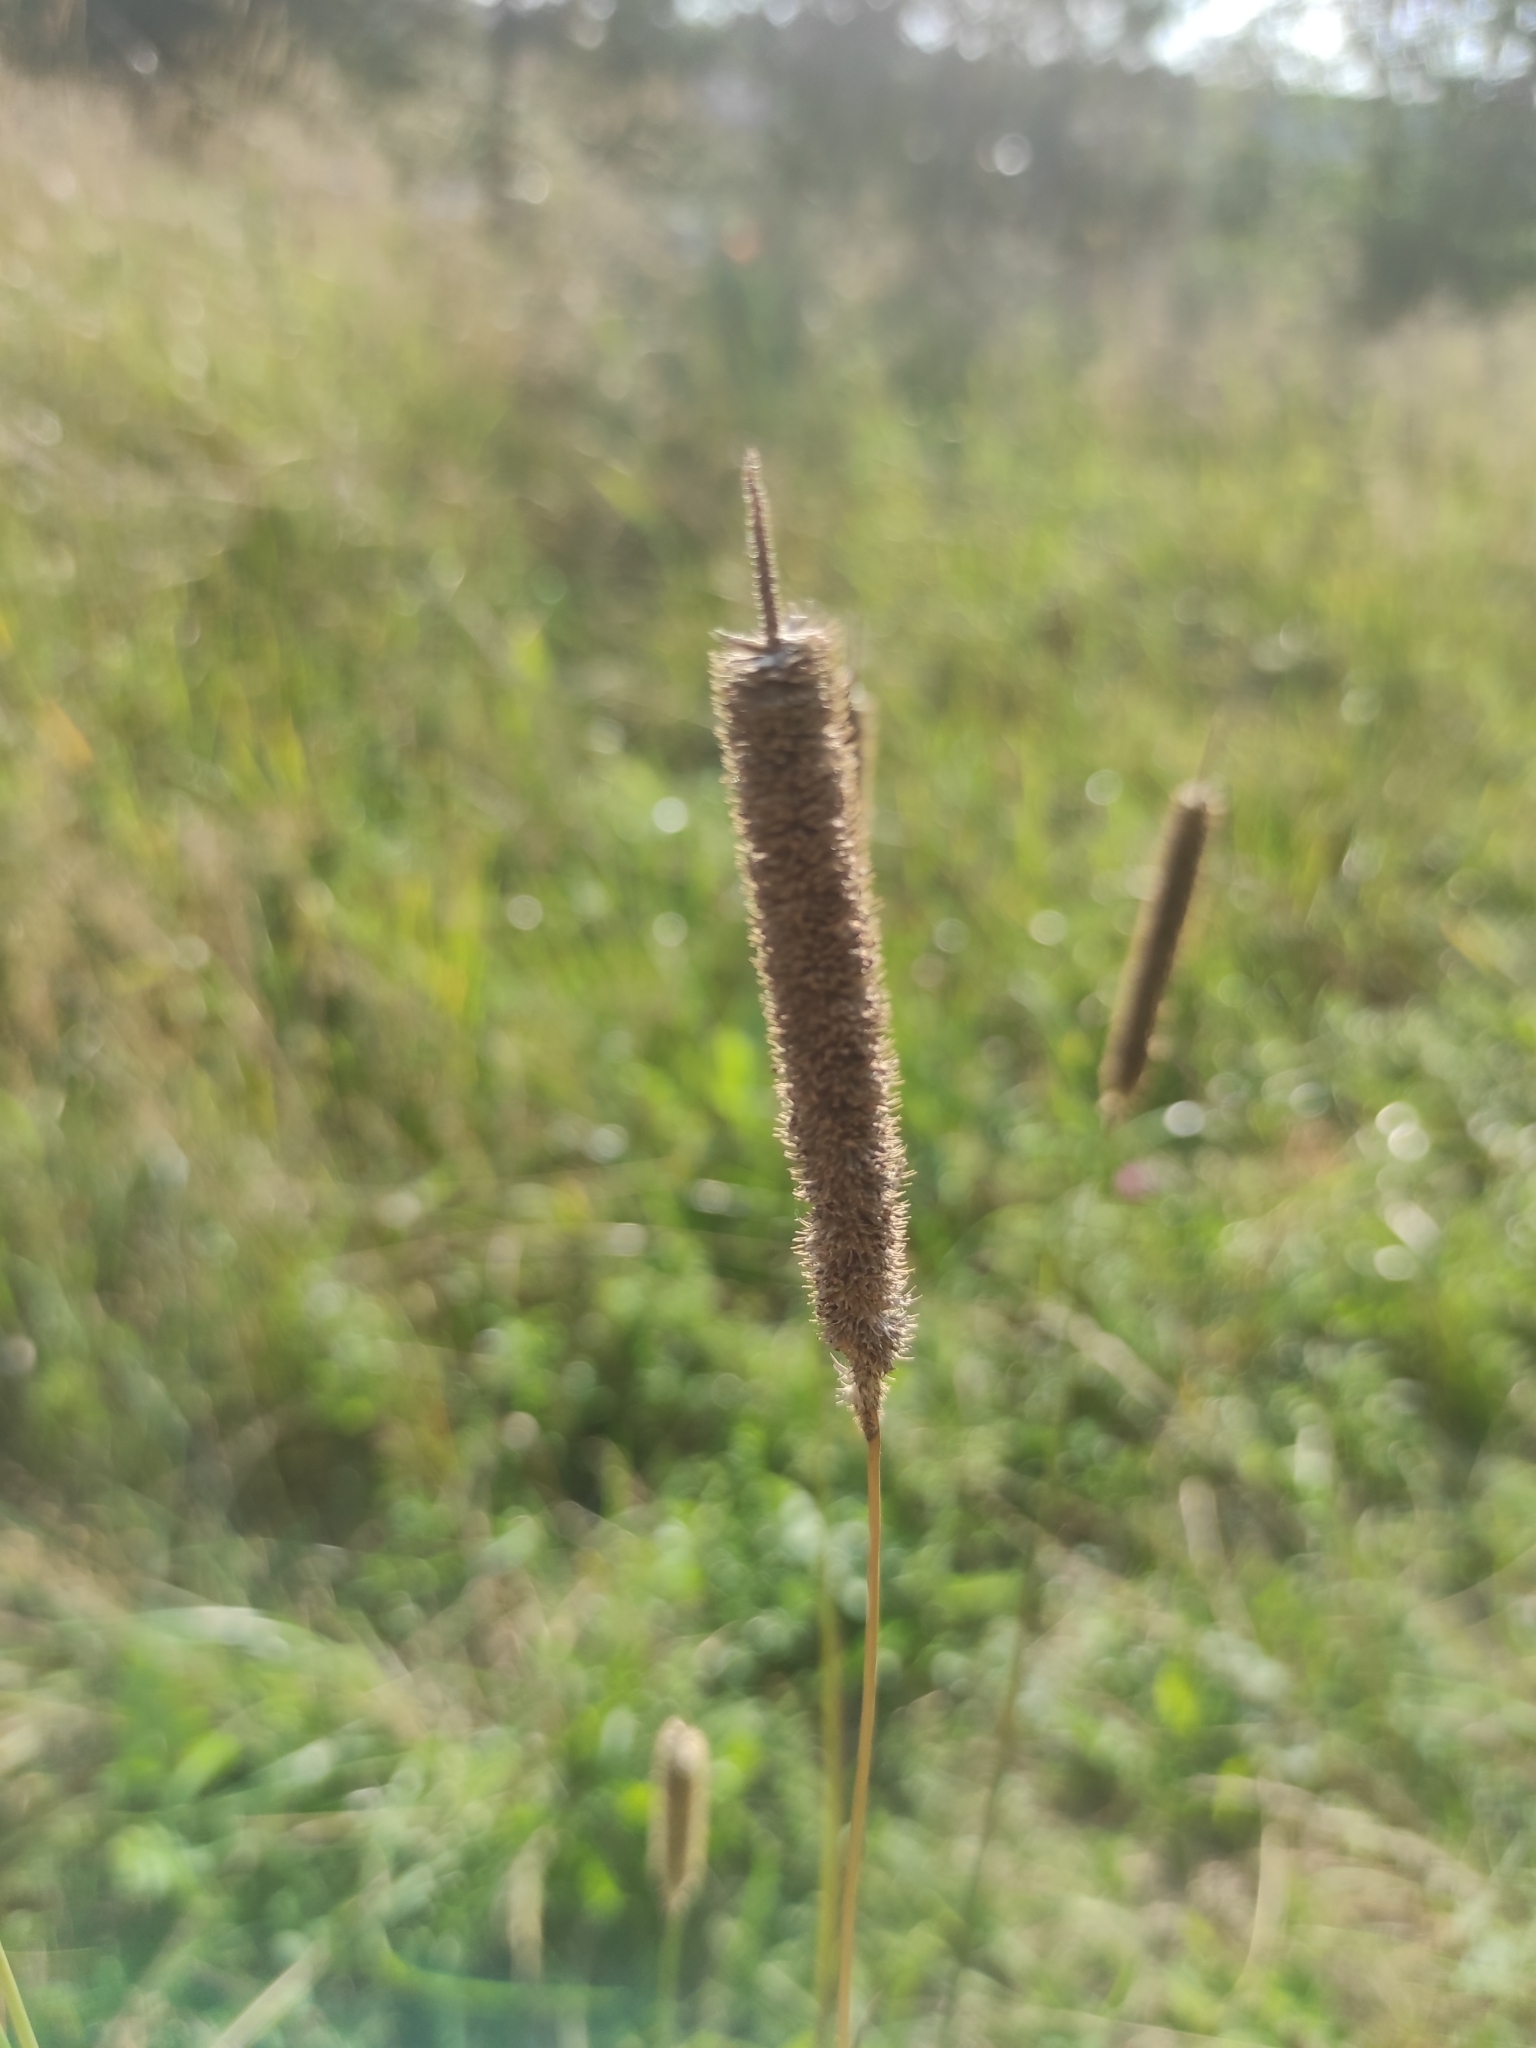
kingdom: Plantae
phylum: Tracheophyta
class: Liliopsida
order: Poales
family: Poaceae
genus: Phleum
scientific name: Phleum pratense
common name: Timothy grass
